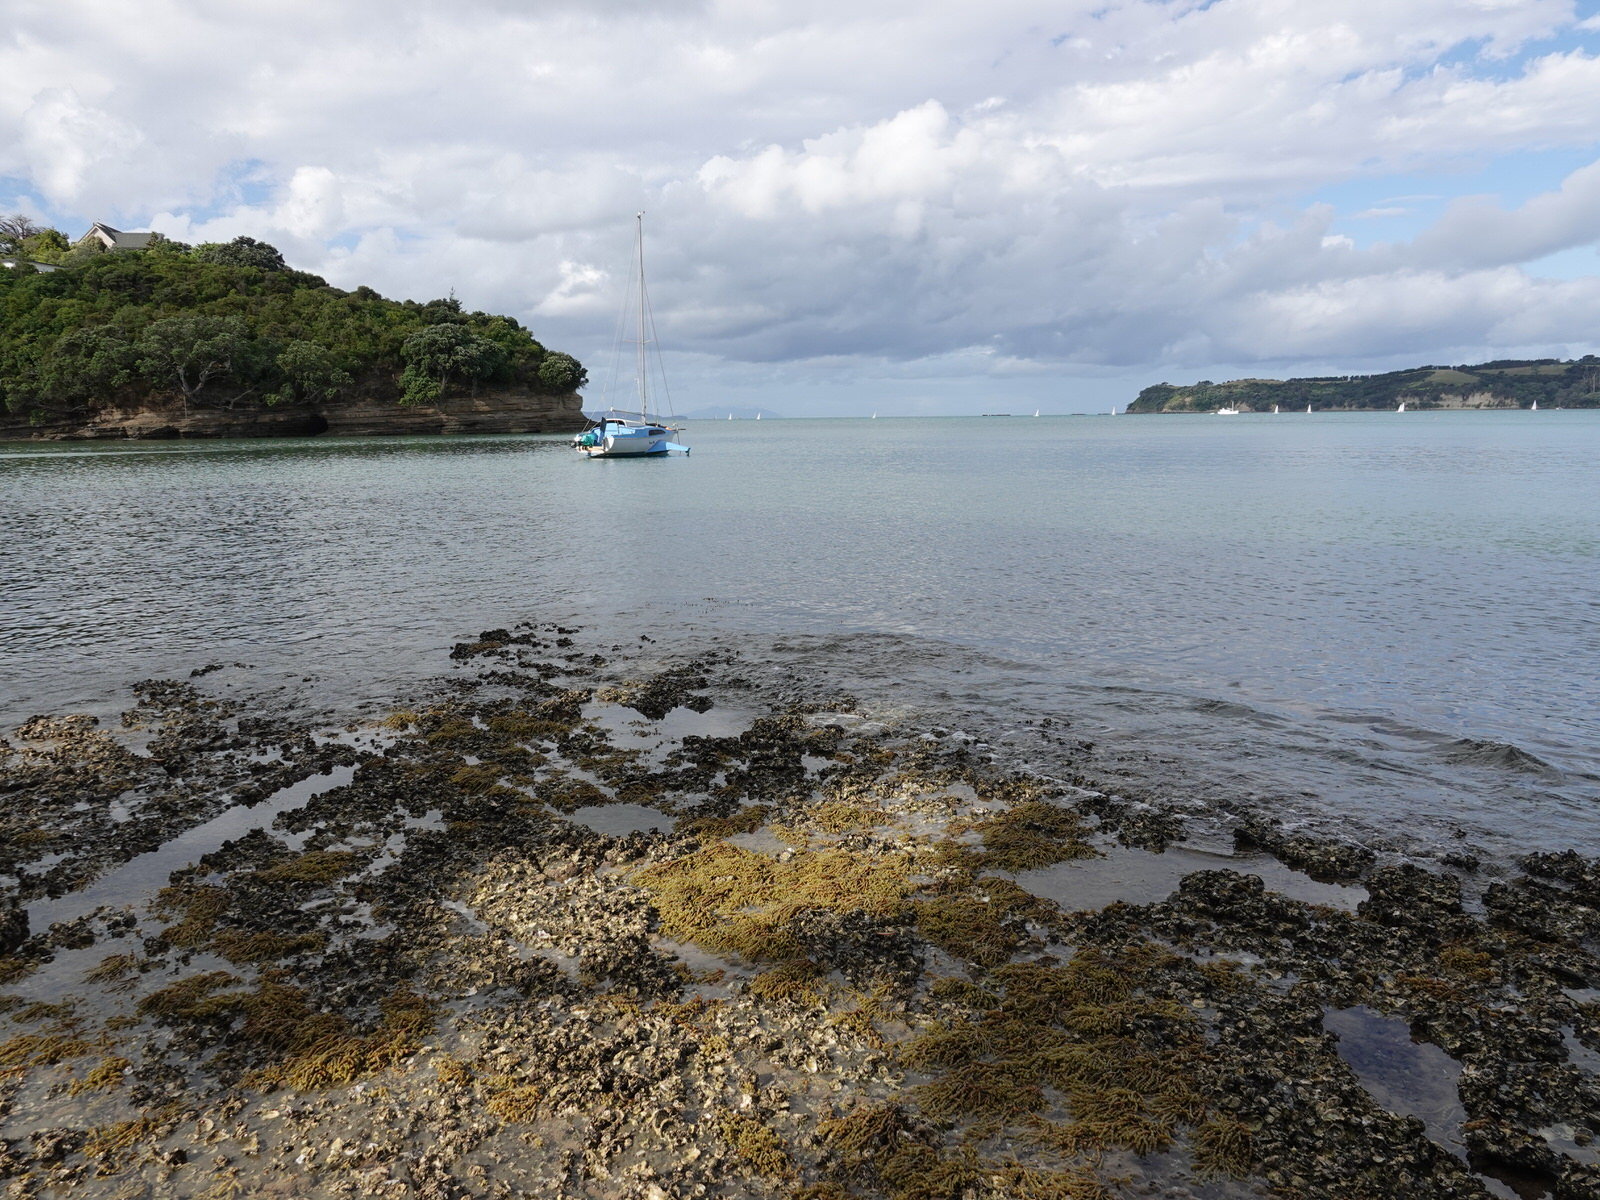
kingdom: Chromista
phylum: Ochrophyta
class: Phaeophyceae
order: Fucales
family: Hormosiraceae
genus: Hormosira
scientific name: Hormosira banksii
